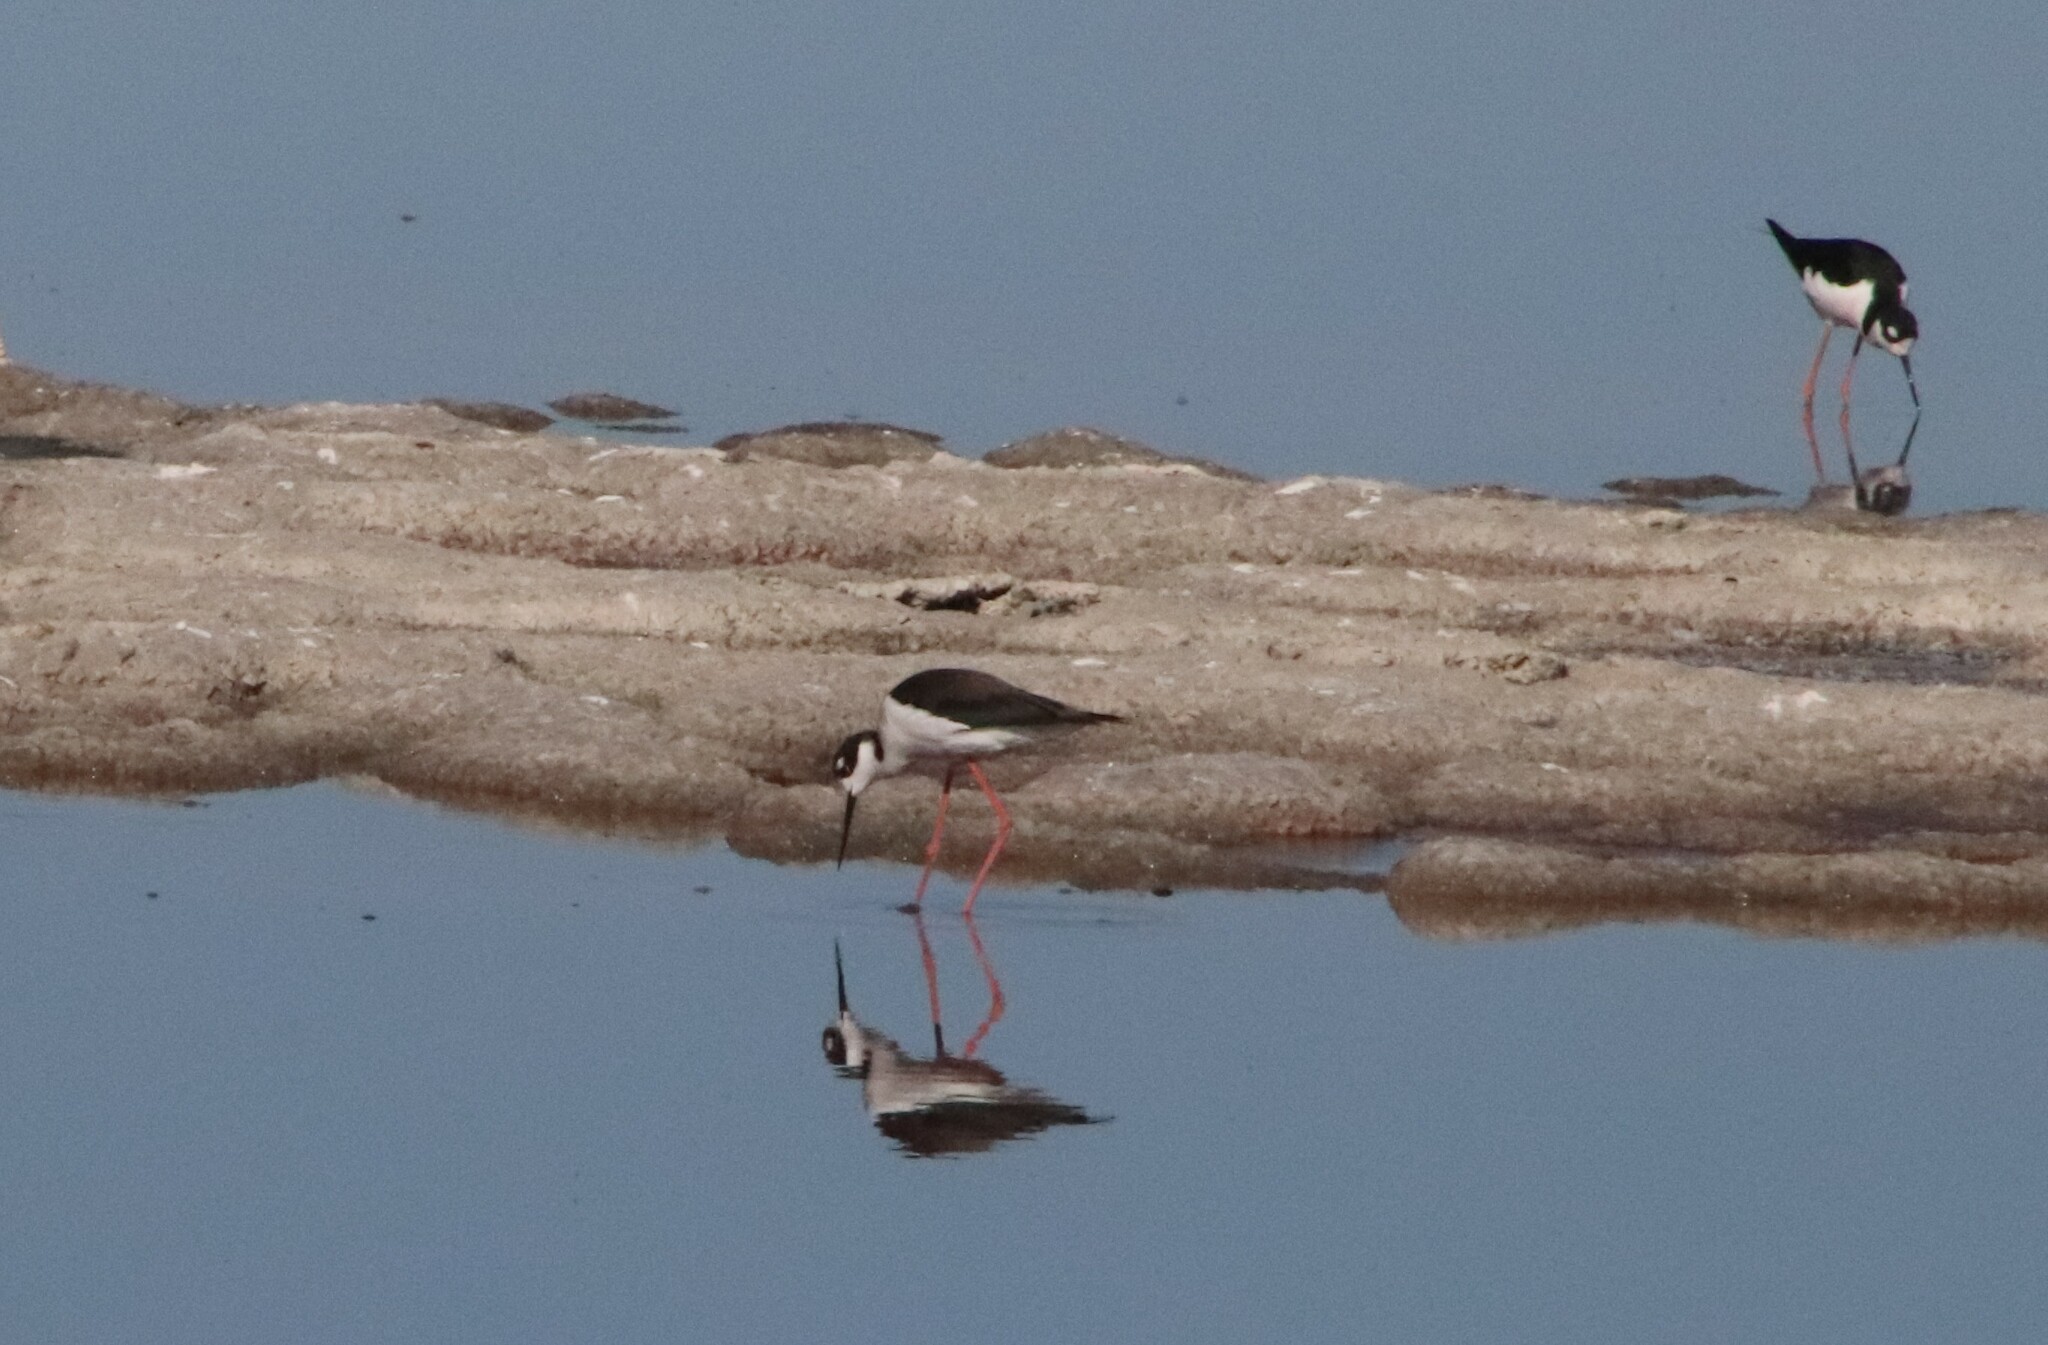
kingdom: Animalia
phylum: Chordata
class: Aves
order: Charadriiformes
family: Recurvirostridae
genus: Himantopus
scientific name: Himantopus mexicanus
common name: Black-necked stilt
